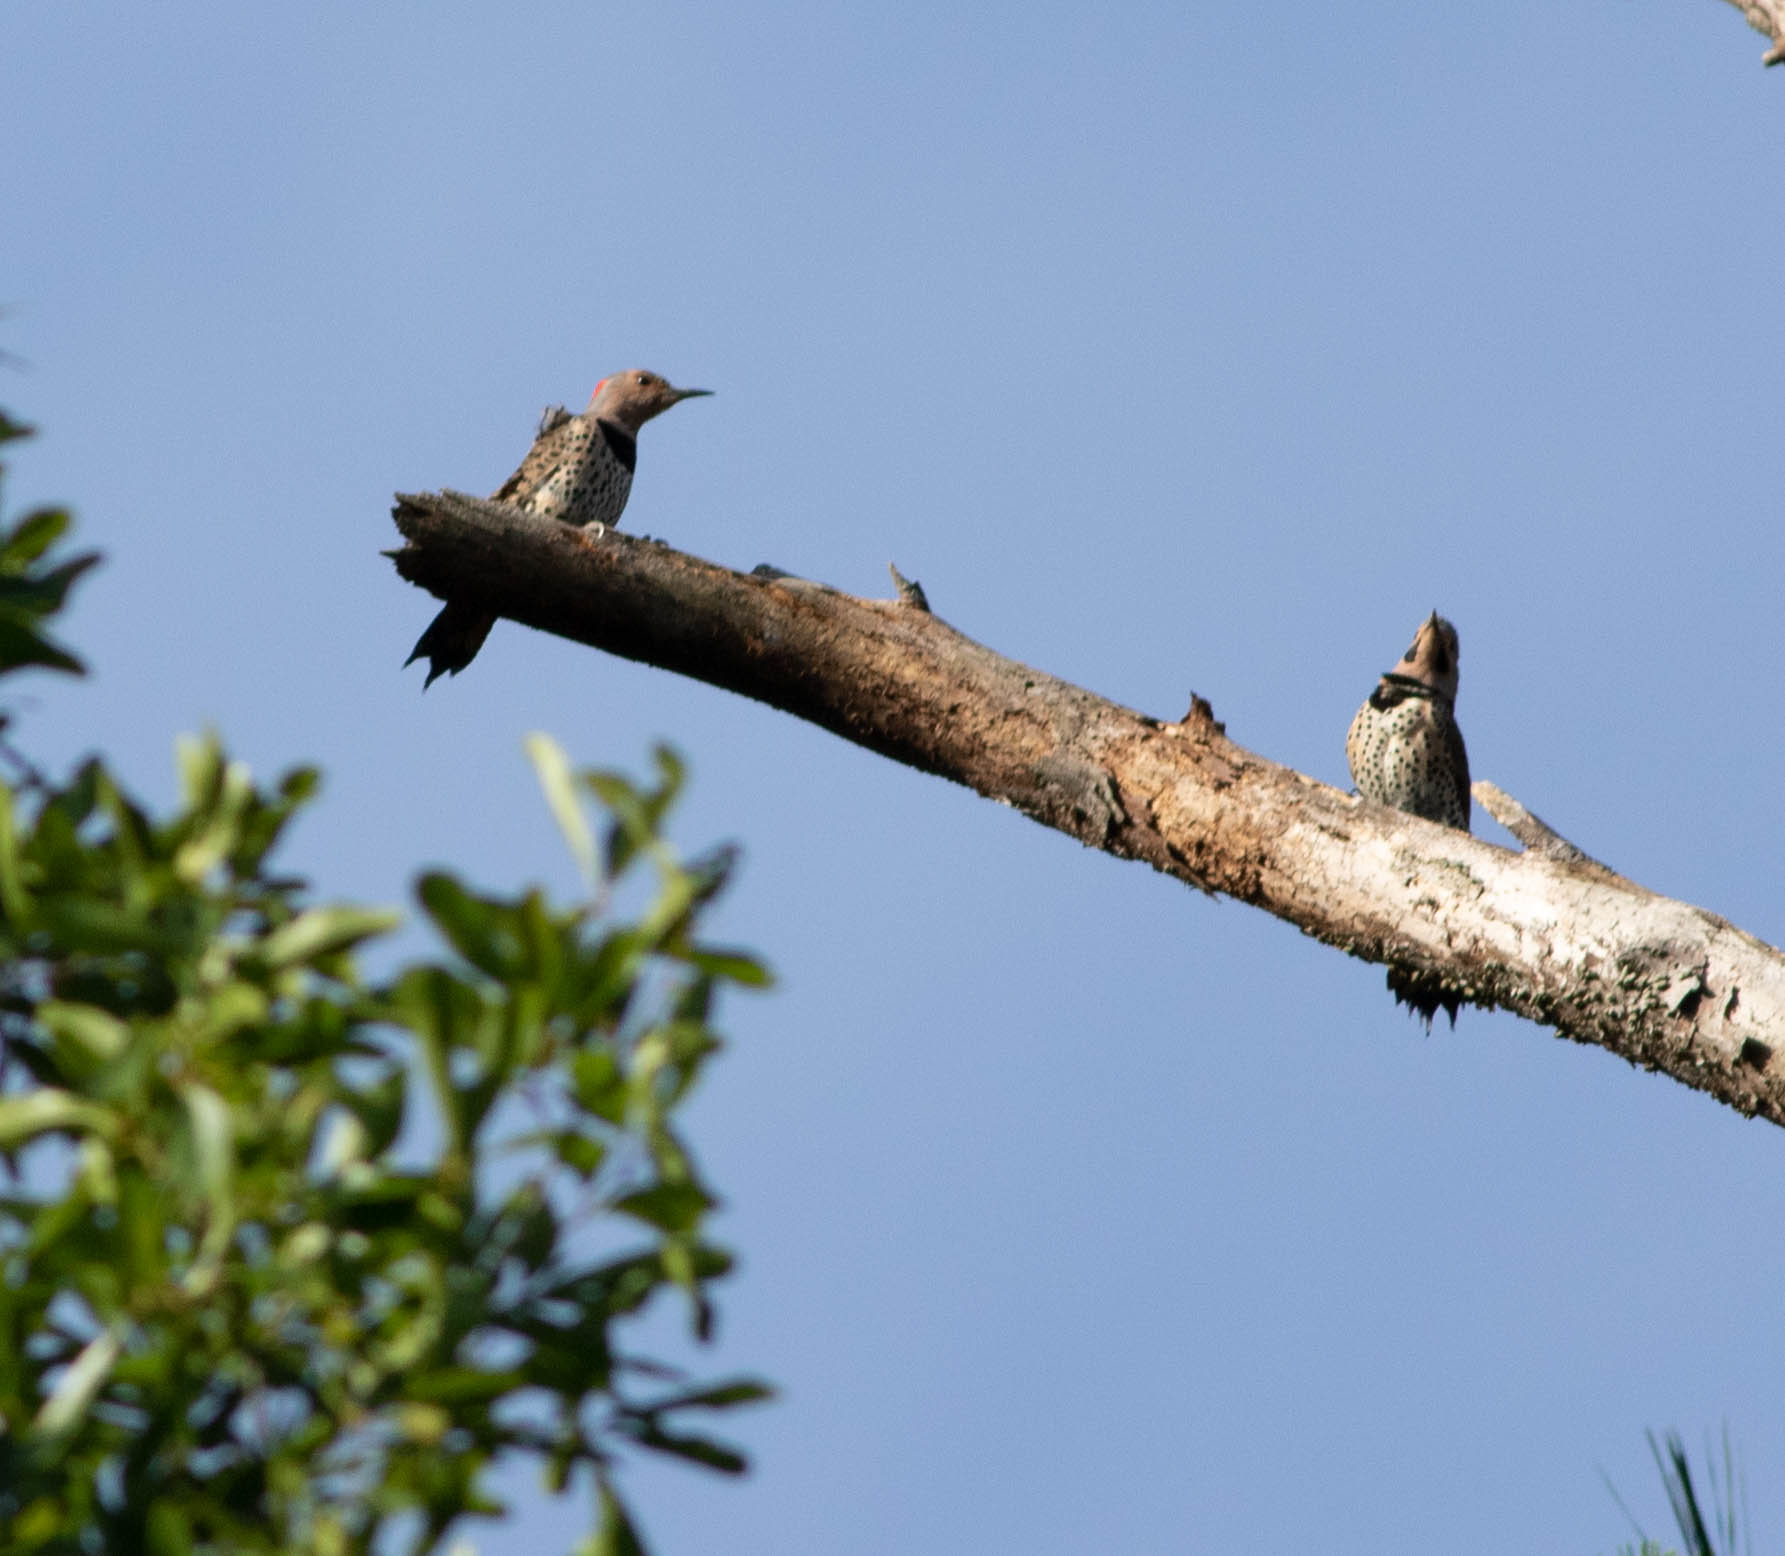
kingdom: Animalia
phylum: Chordata
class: Aves
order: Piciformes
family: Picidae
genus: Colaptes
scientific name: Colaptes auratus
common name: Northern flicker
